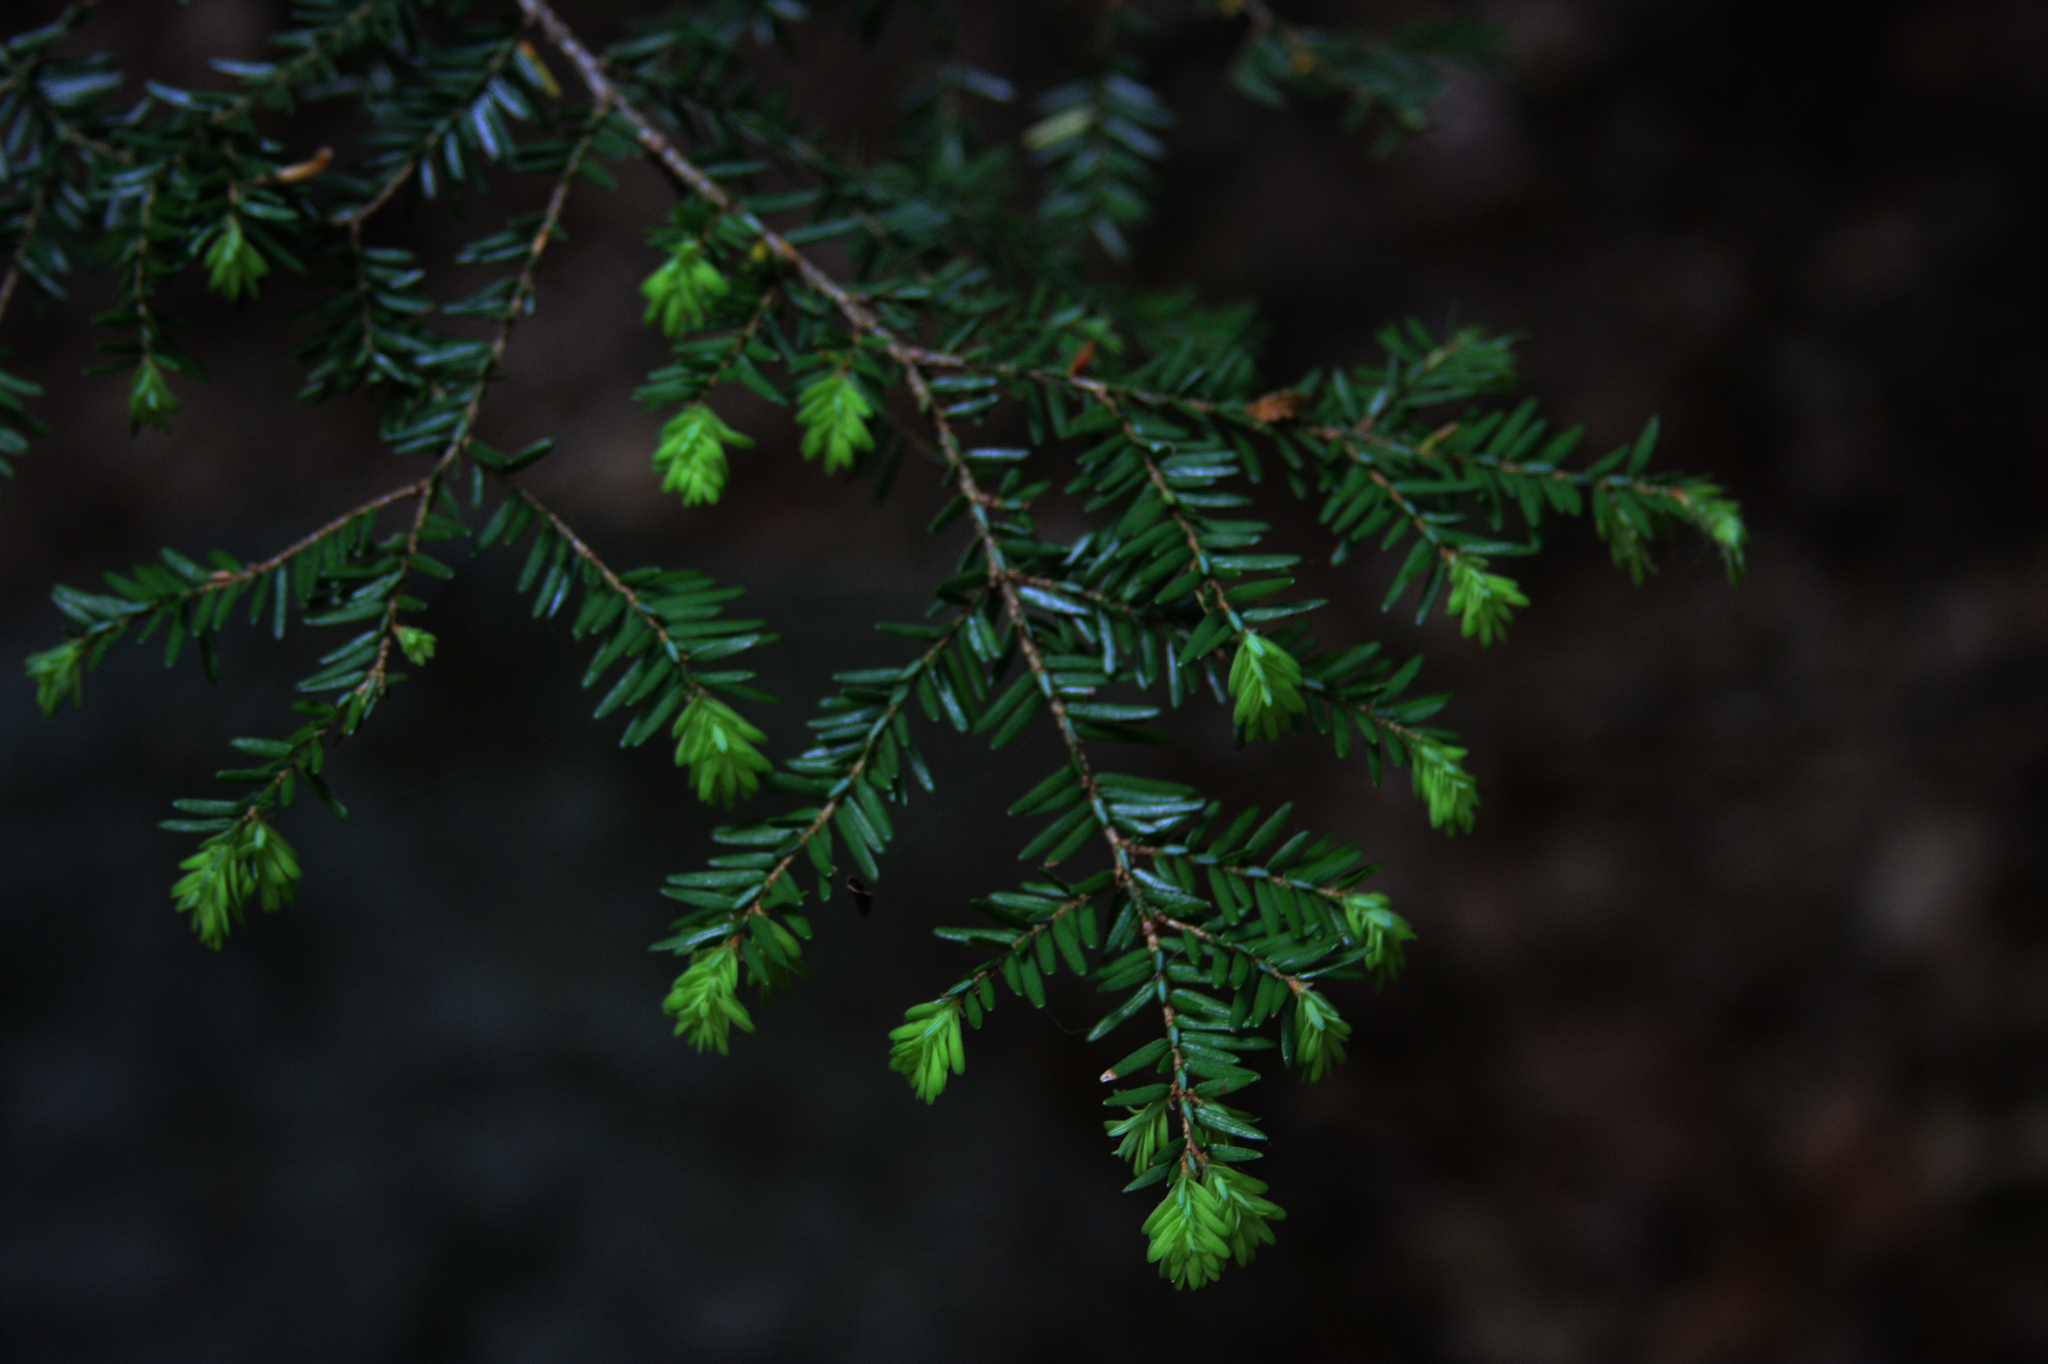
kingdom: Plantae
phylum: Tracheophyta
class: Pinopsida
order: Pinales
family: Pinaceae
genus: Tsuga
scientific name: Tsuga canadensis
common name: Eastern hemlock
